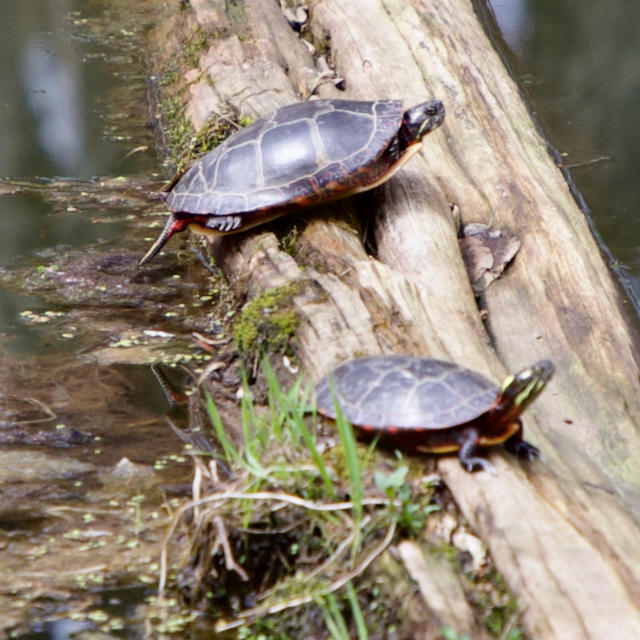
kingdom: Animalia
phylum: Chordata
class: Testudines
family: Emydidae
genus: Chrysemys
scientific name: Chrysemys picta
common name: Painted turtle
